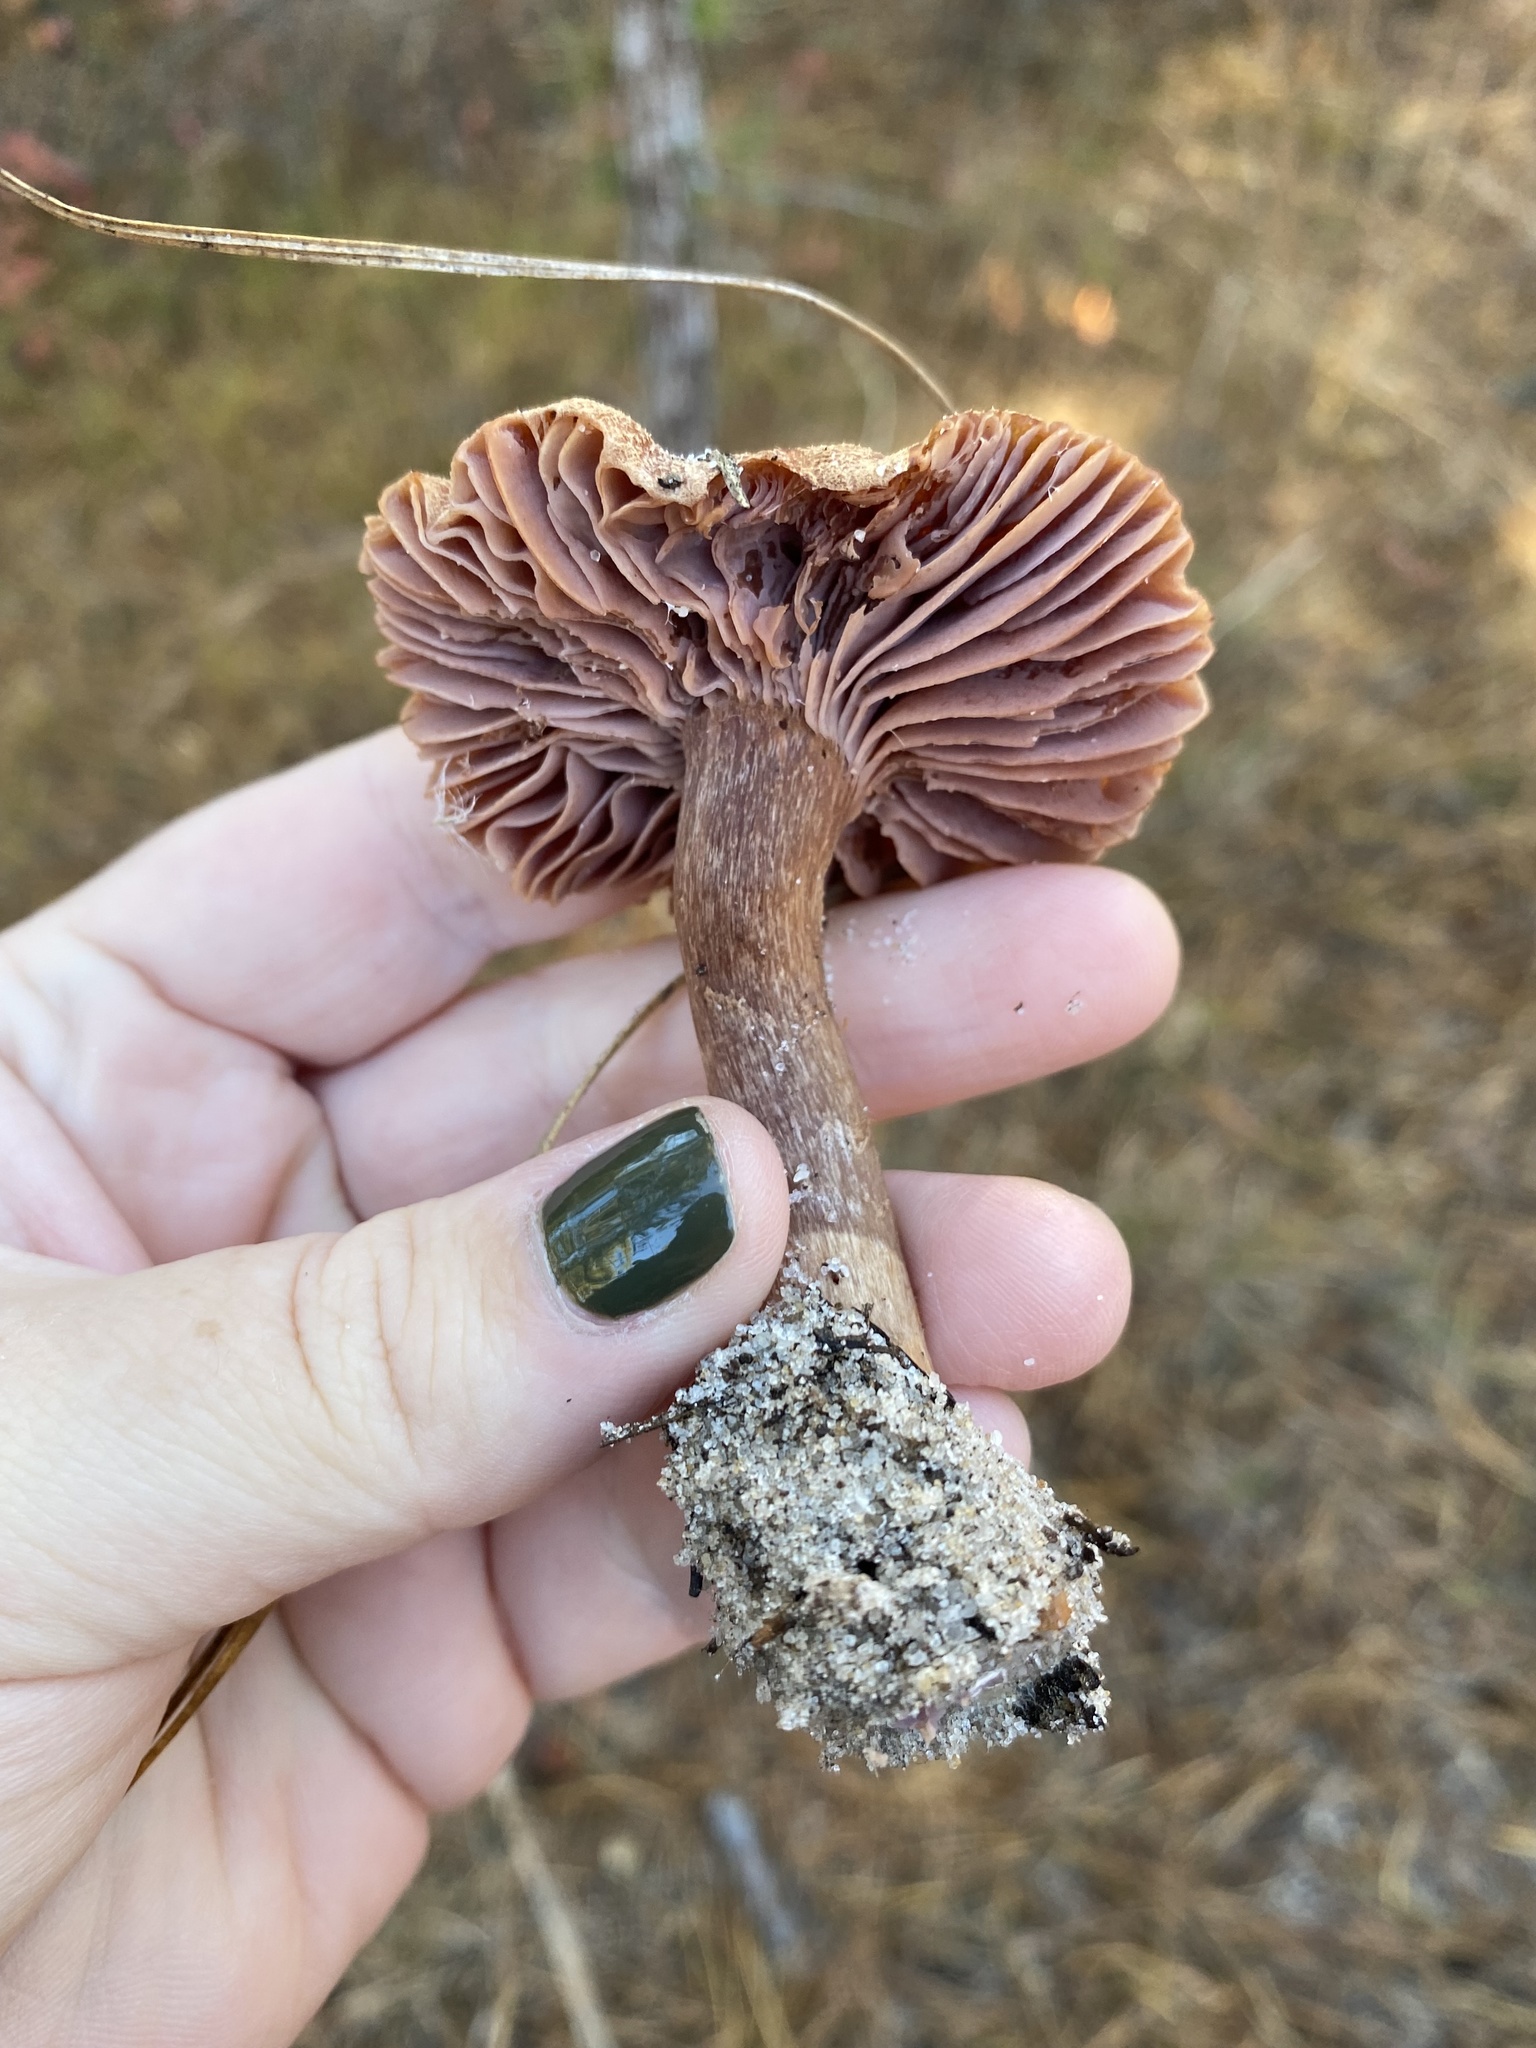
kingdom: Fungi
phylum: Basidiomycota
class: Agaricomycetes
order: Agaricales
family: Hydnangiaceae
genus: Laccaria
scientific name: Laccaria trullissata
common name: Sandy laccaria
